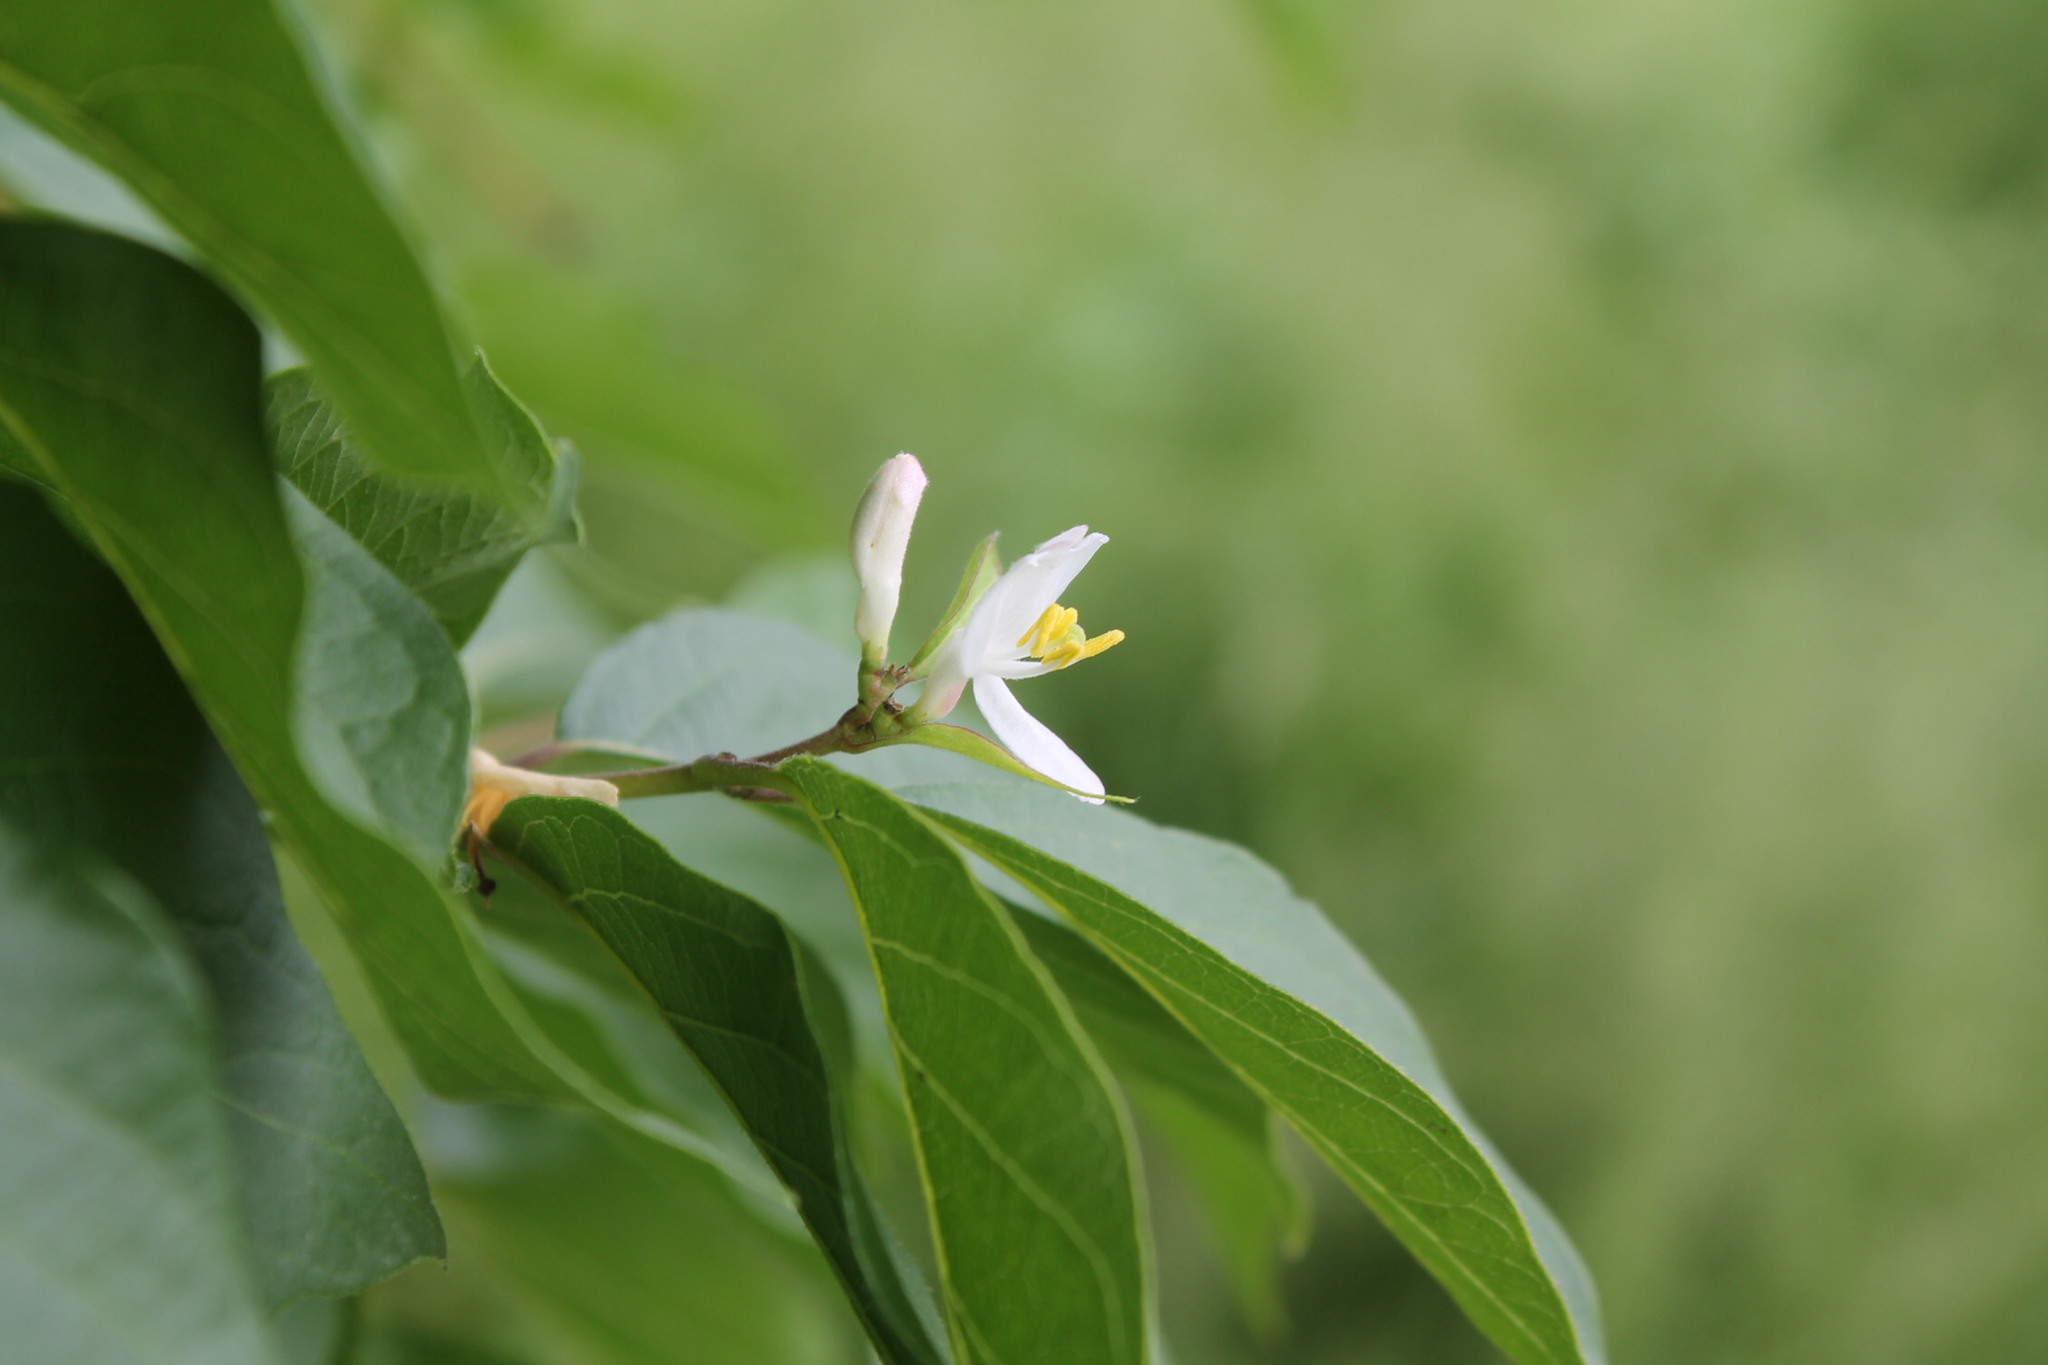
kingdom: Plantae
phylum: Tracheophyta
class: Magnoliopsida
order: Dipsacales
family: Caprifoliaceae
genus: Lonicera
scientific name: Lonicera maackii
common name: Amur honeysuckle
